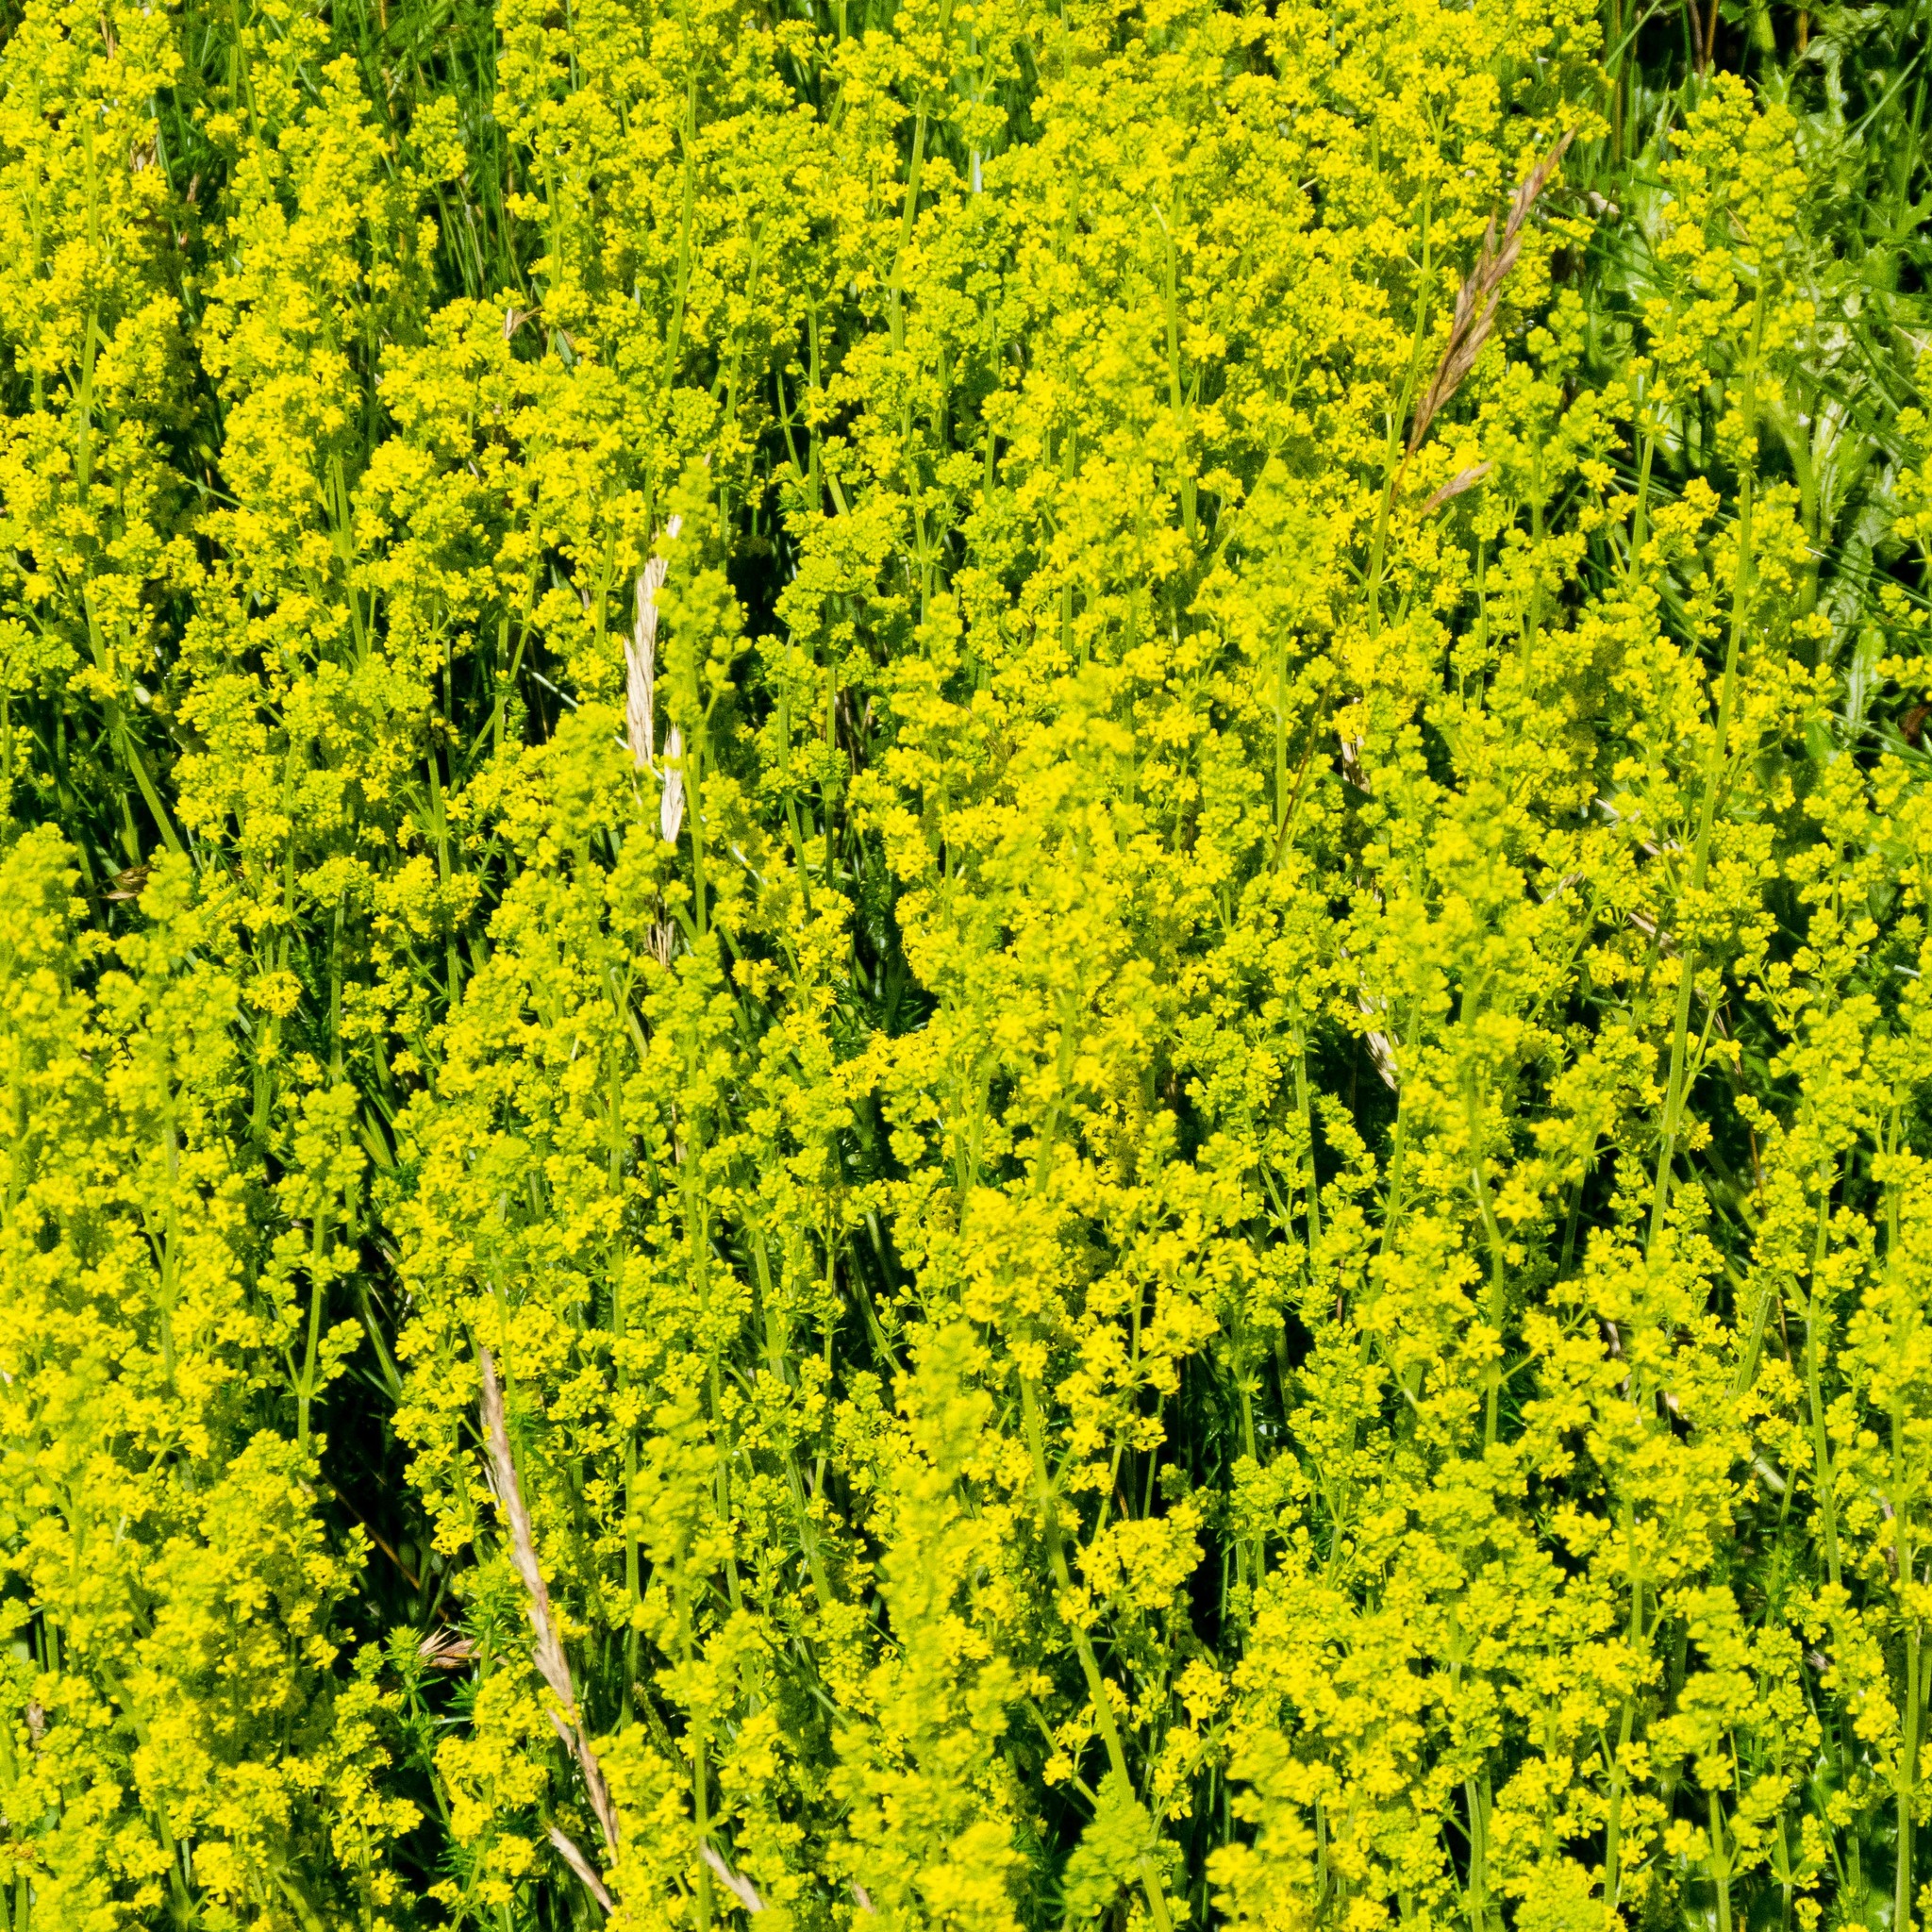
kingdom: Plantae
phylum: Tracheophyta
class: Magnoliopsida
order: Gentianales
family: Rubiaceae
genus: Galium
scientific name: Galium verum
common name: Lady's bedstraw
